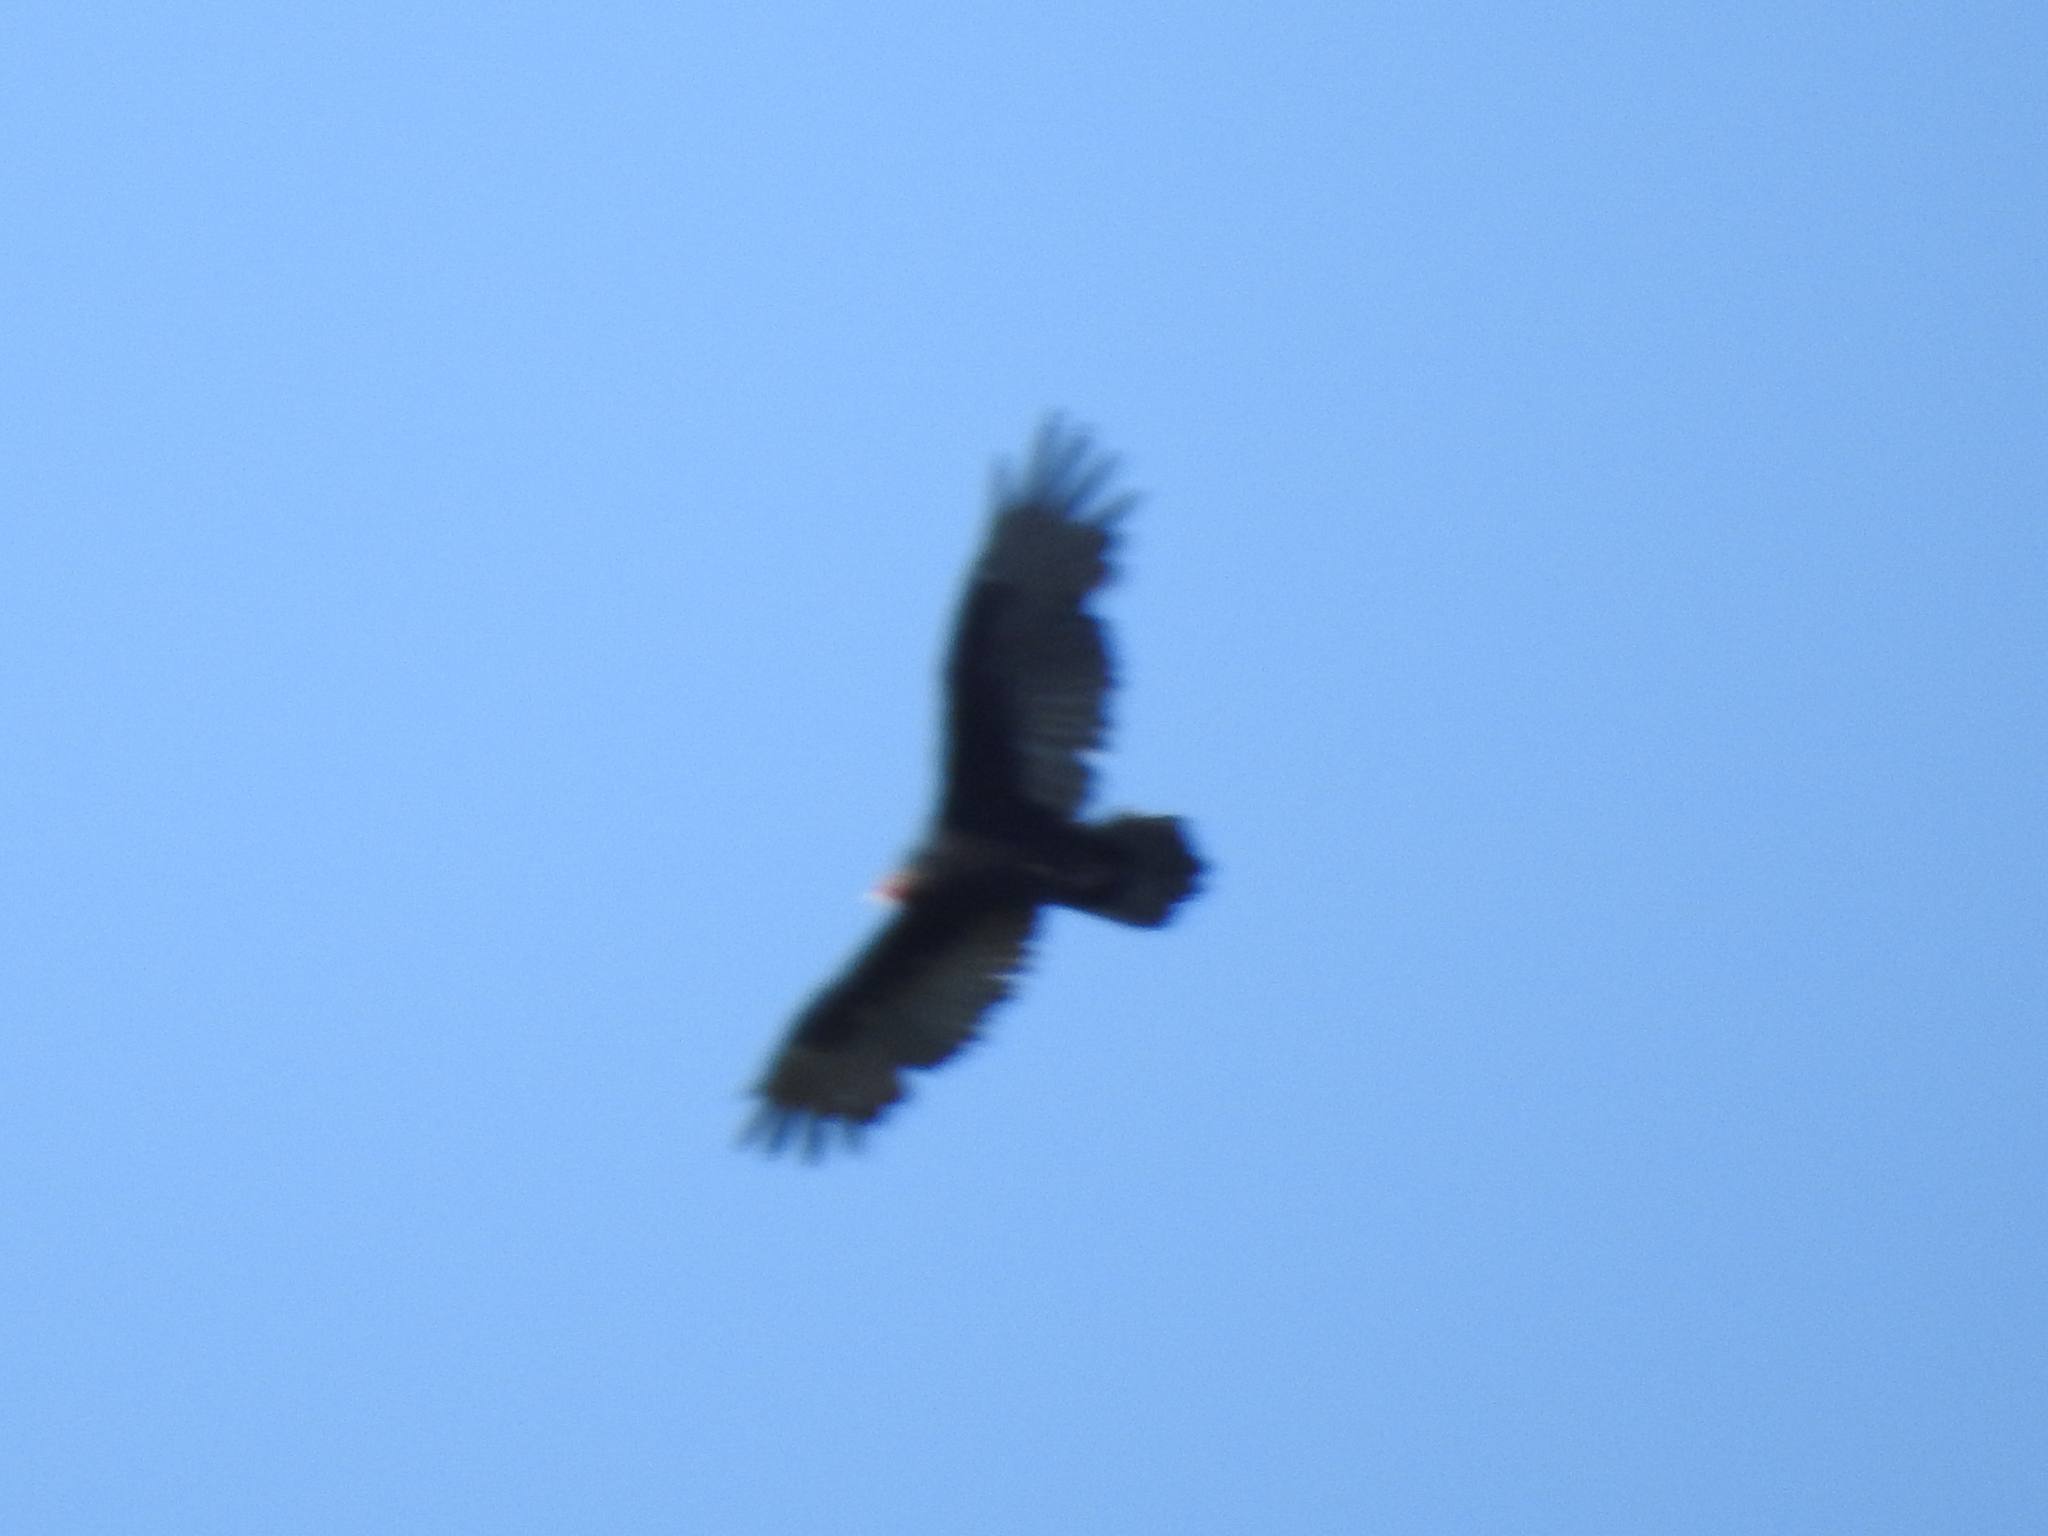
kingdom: Animalia
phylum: Chordata
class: Aves
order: Accipitriformes
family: Cathartidae
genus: Cathartes
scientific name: Cathartes aura
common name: Turkey vulture
